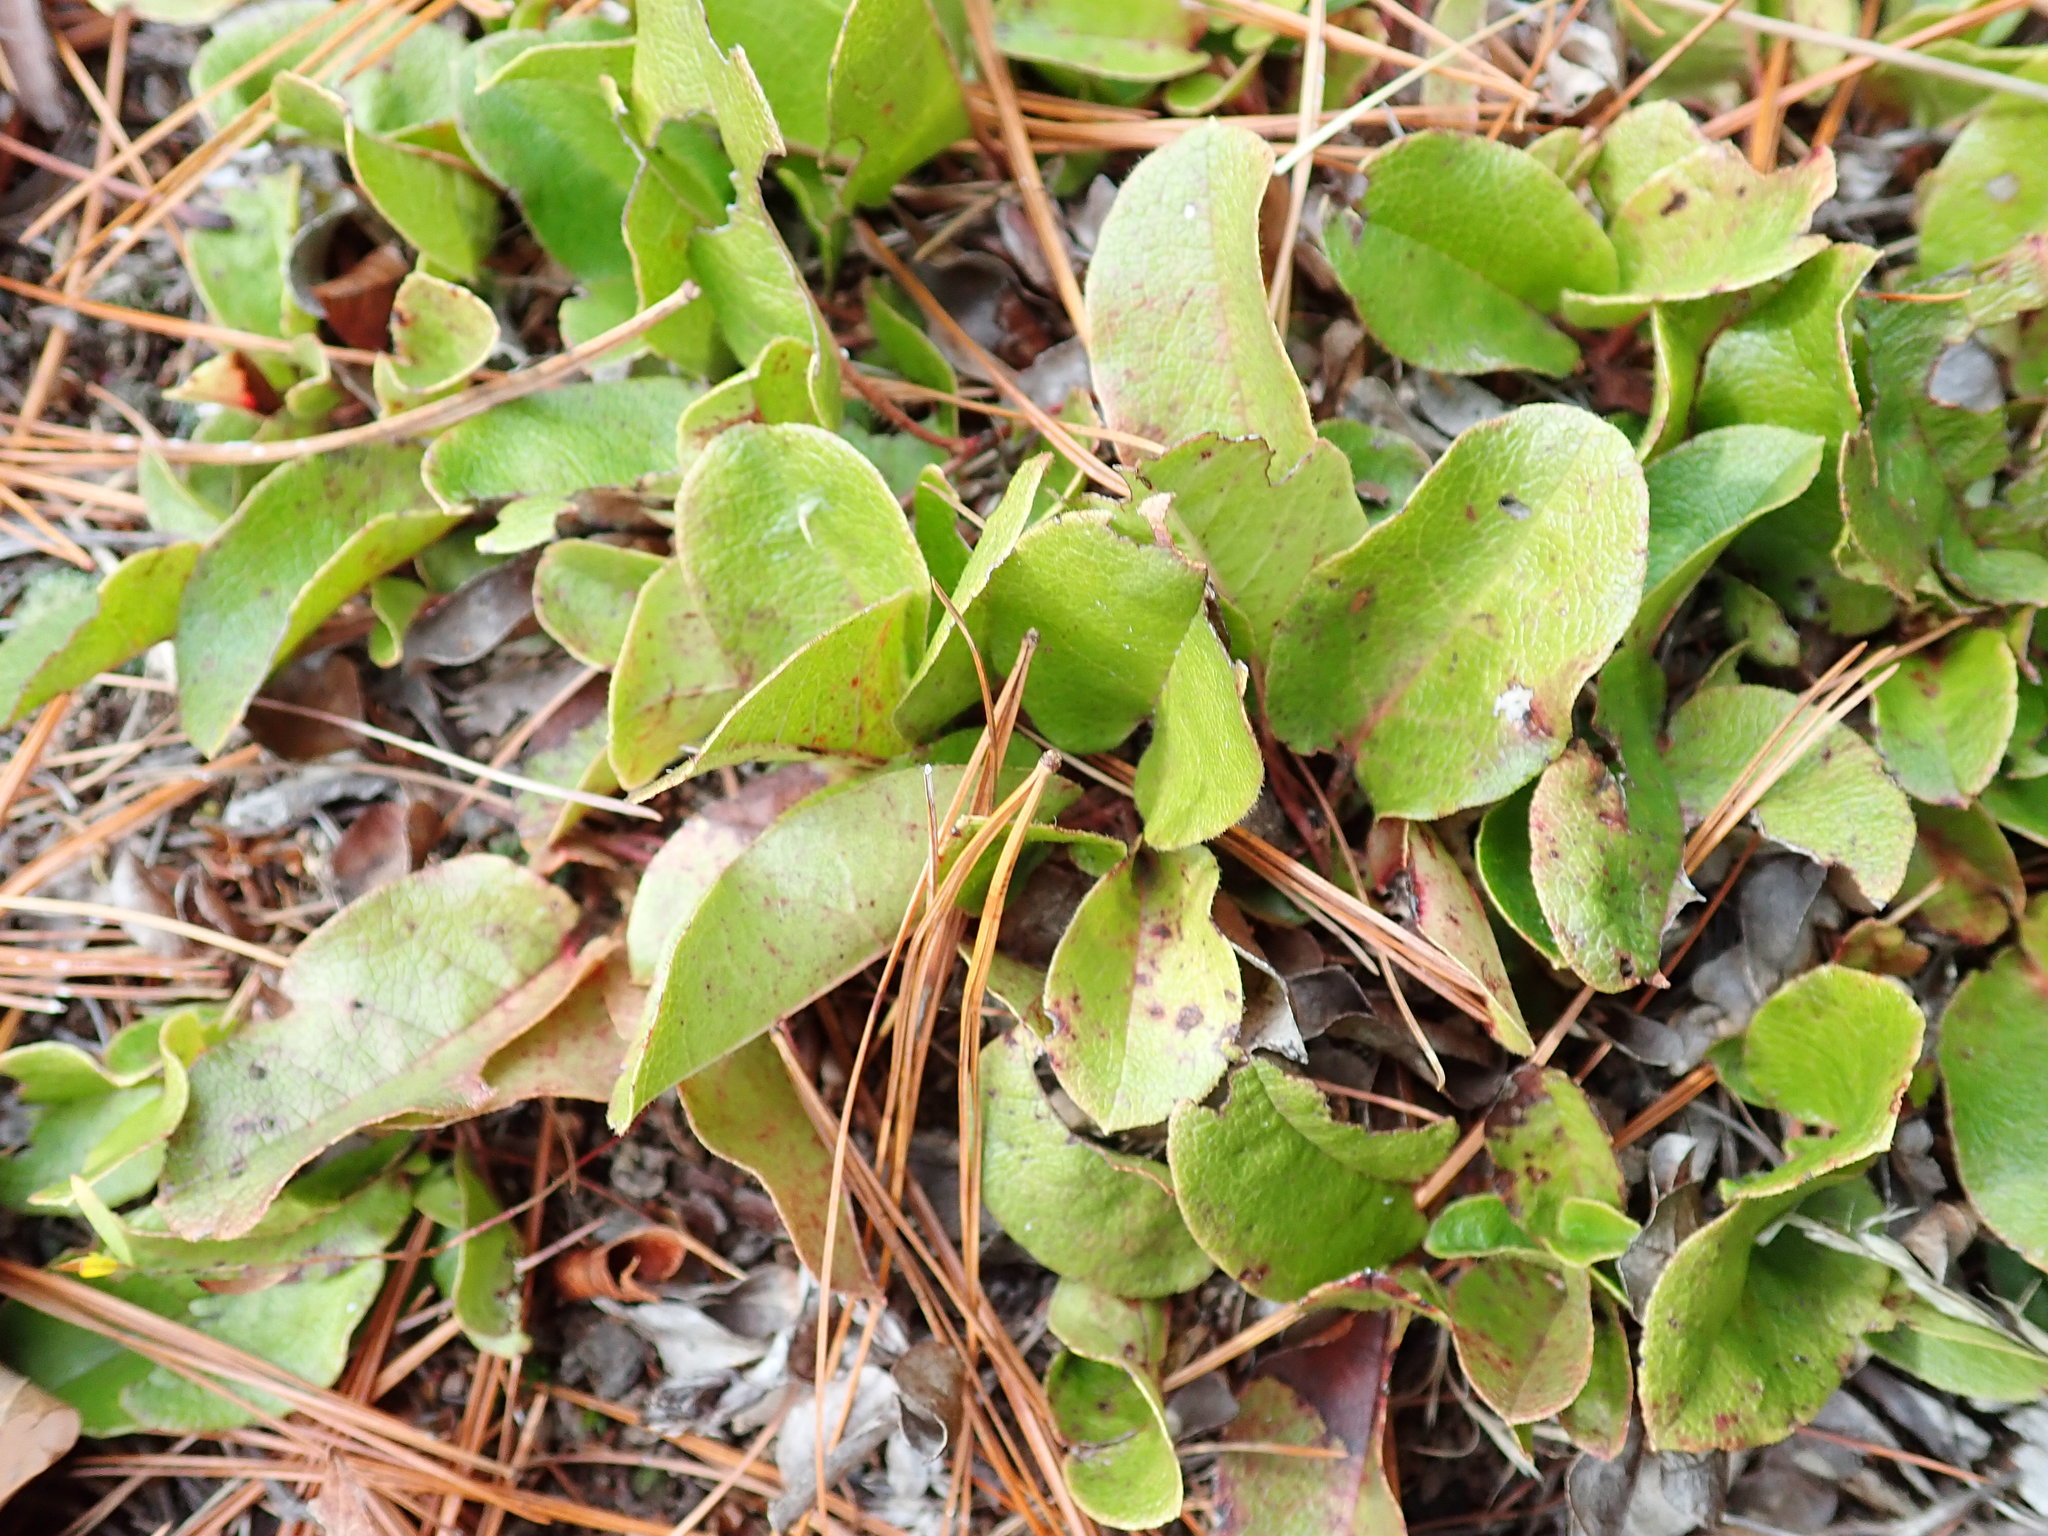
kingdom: Plantae
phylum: Tracheophyta
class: Magnoliopsida
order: Ericales
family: Ericaceae
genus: Epigaea
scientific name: Epigaea repens
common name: Gravelroot
